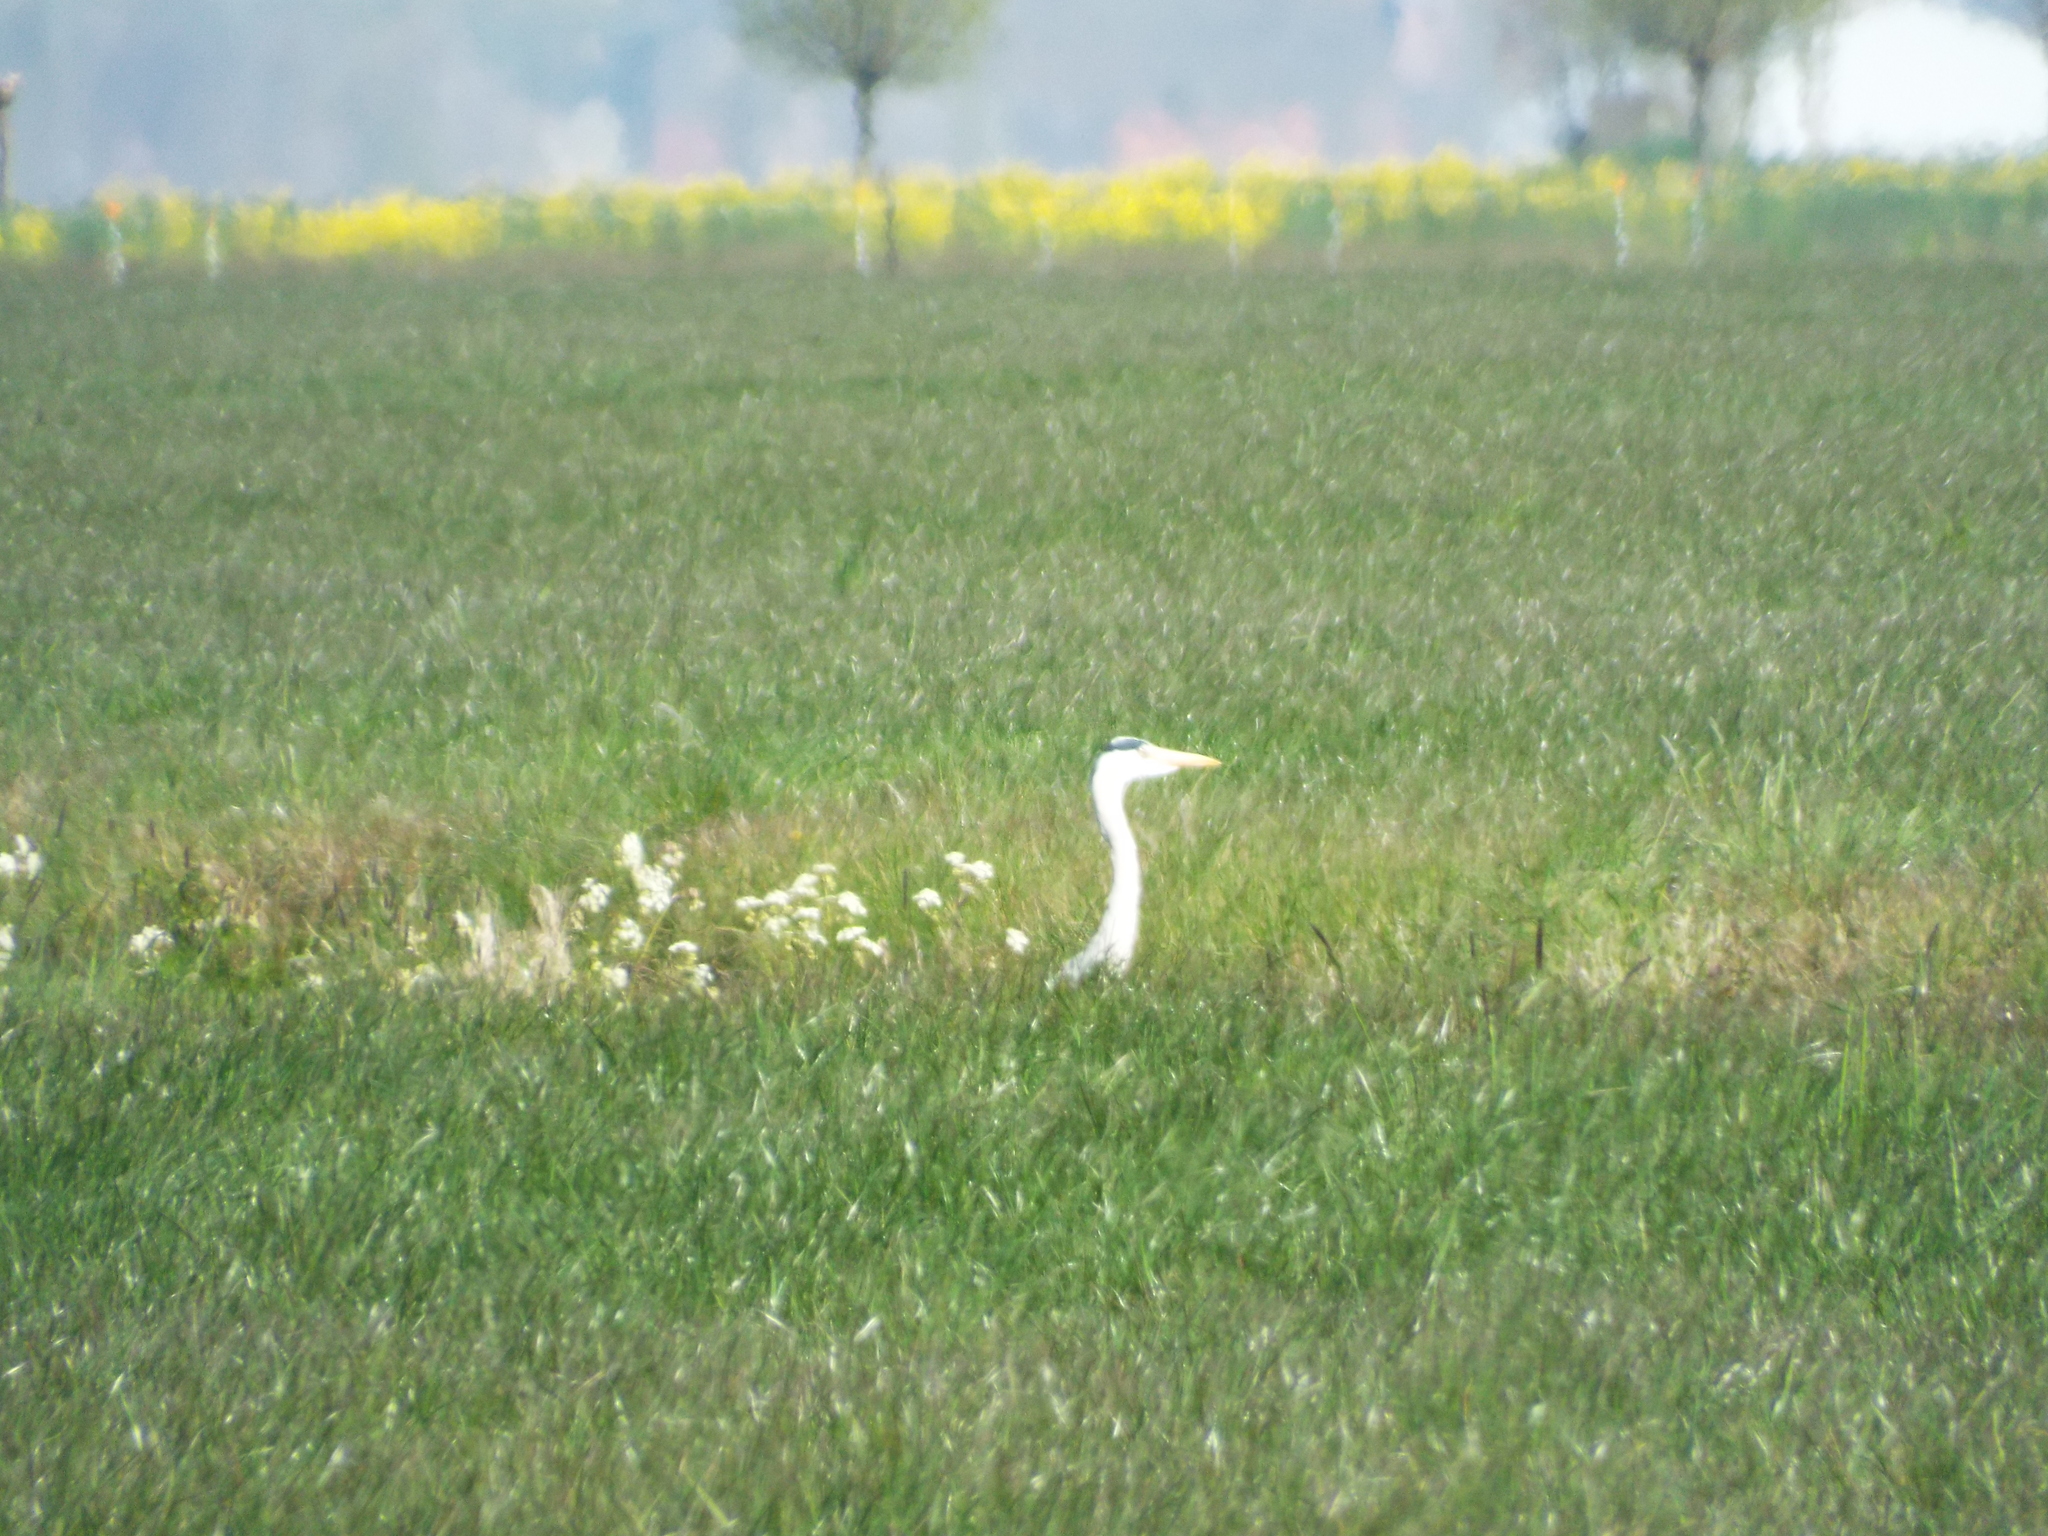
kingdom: Animalia
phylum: Chordata
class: Aves
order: Pelecaniformes
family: Ardeidae
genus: Ardea
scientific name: Ardea cinerea
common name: Grey heron
